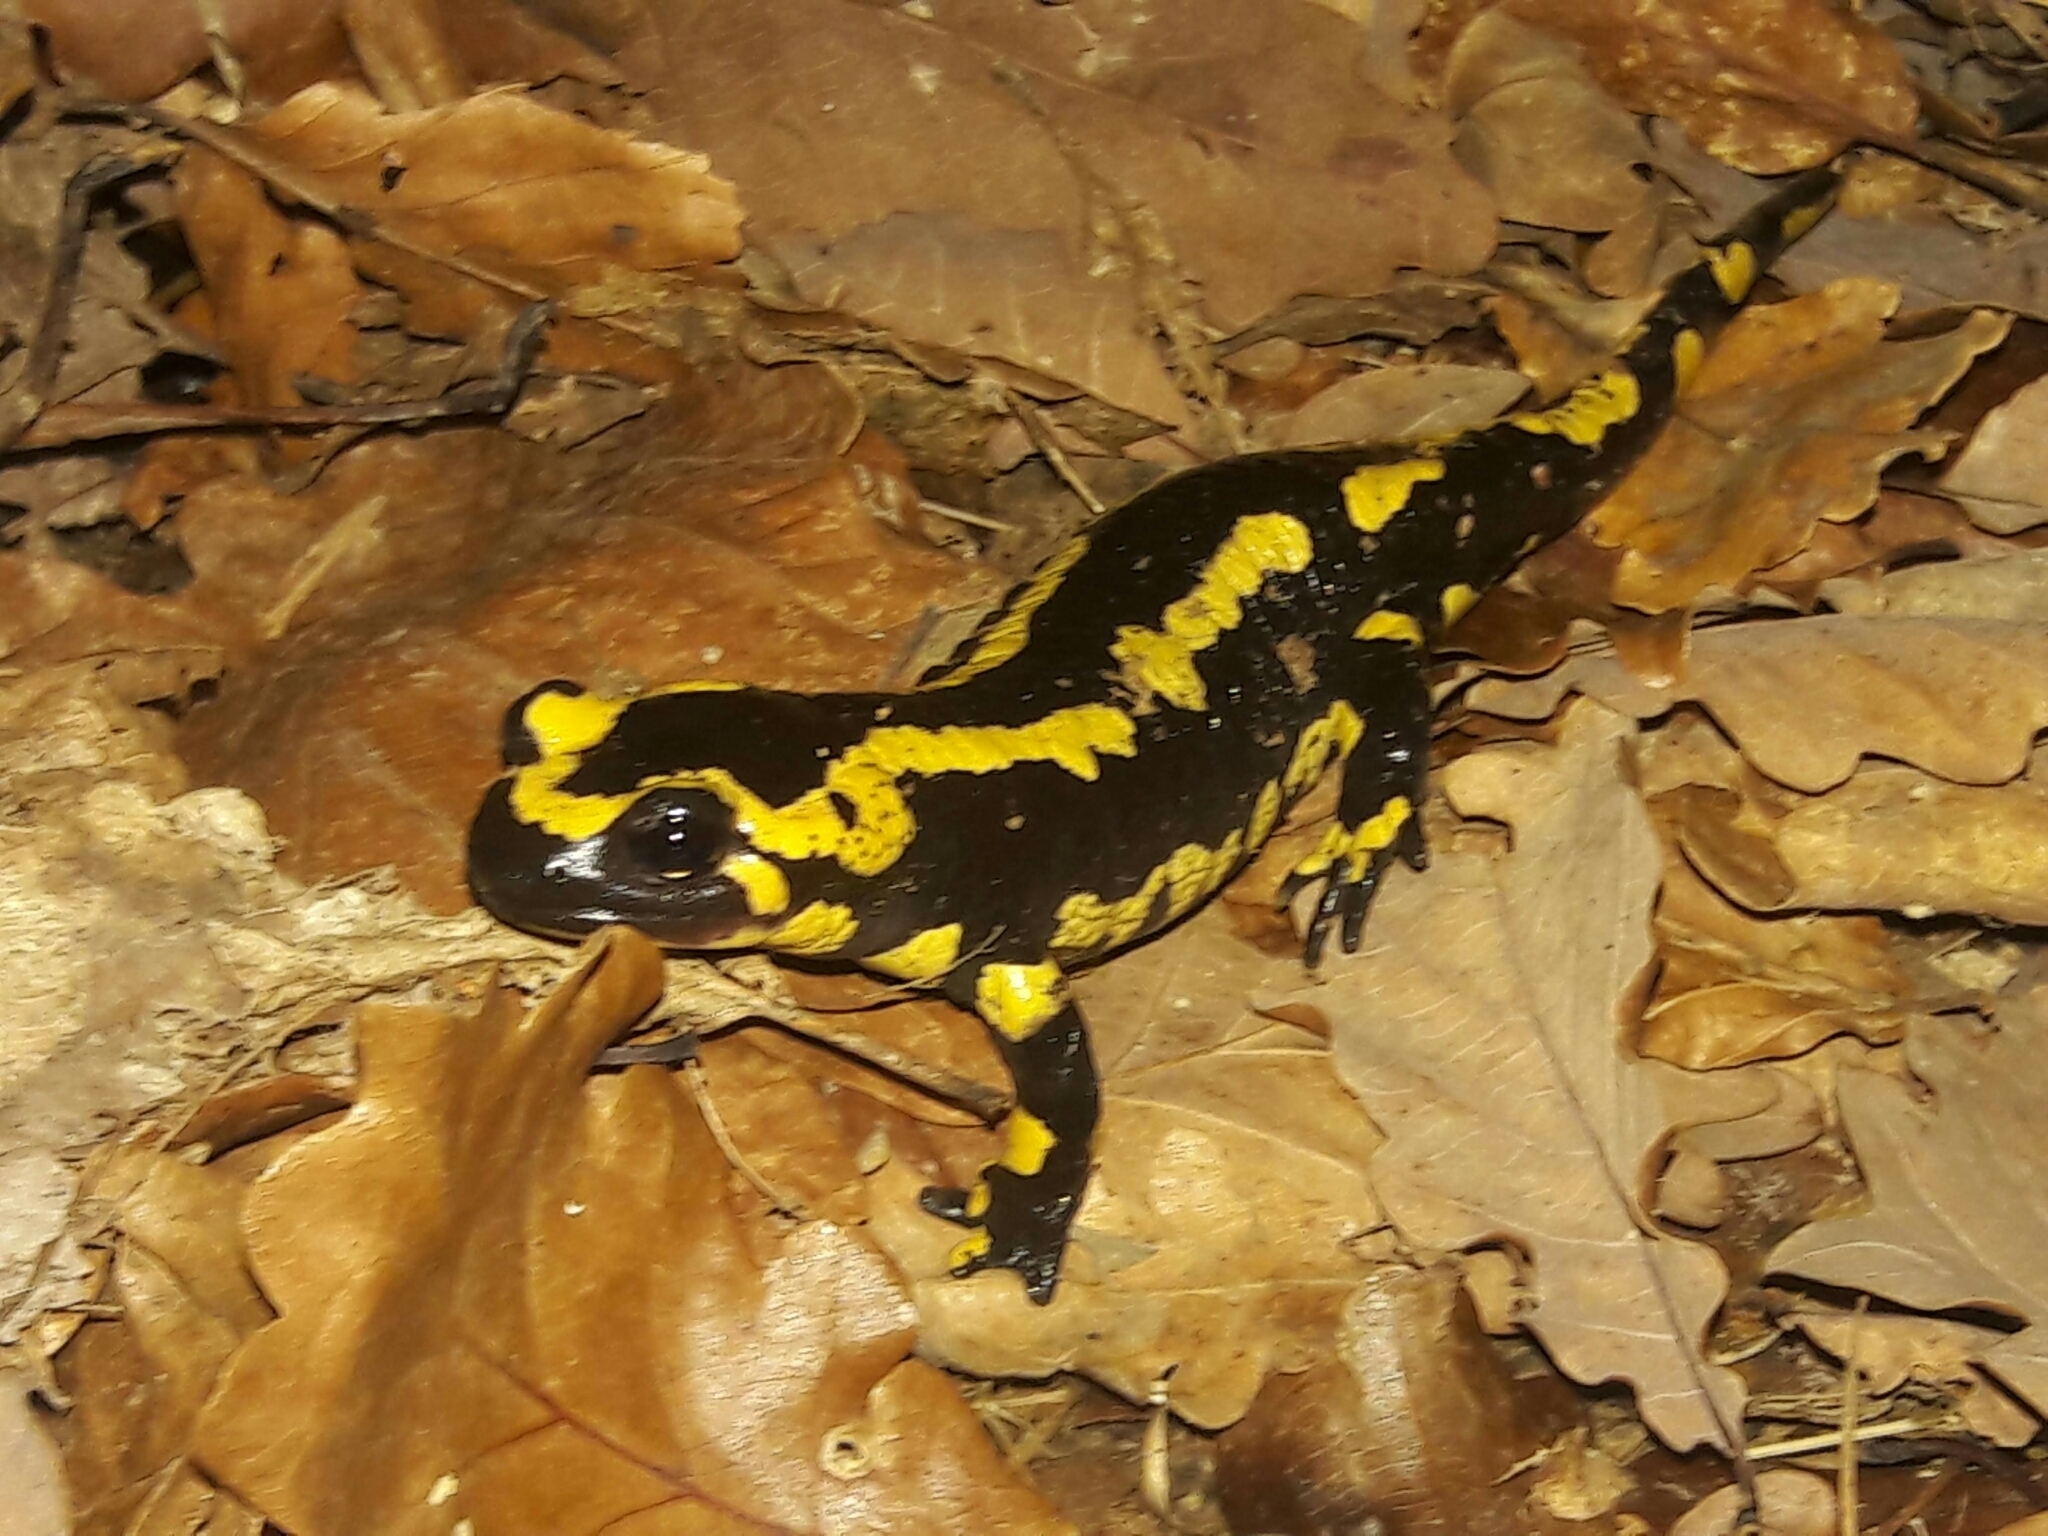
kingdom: Animalia
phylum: Chordata
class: Amphibia
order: Caudata
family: Salamandridae
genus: Salamandra
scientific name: Salamandra salamandra
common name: Fire salamander
